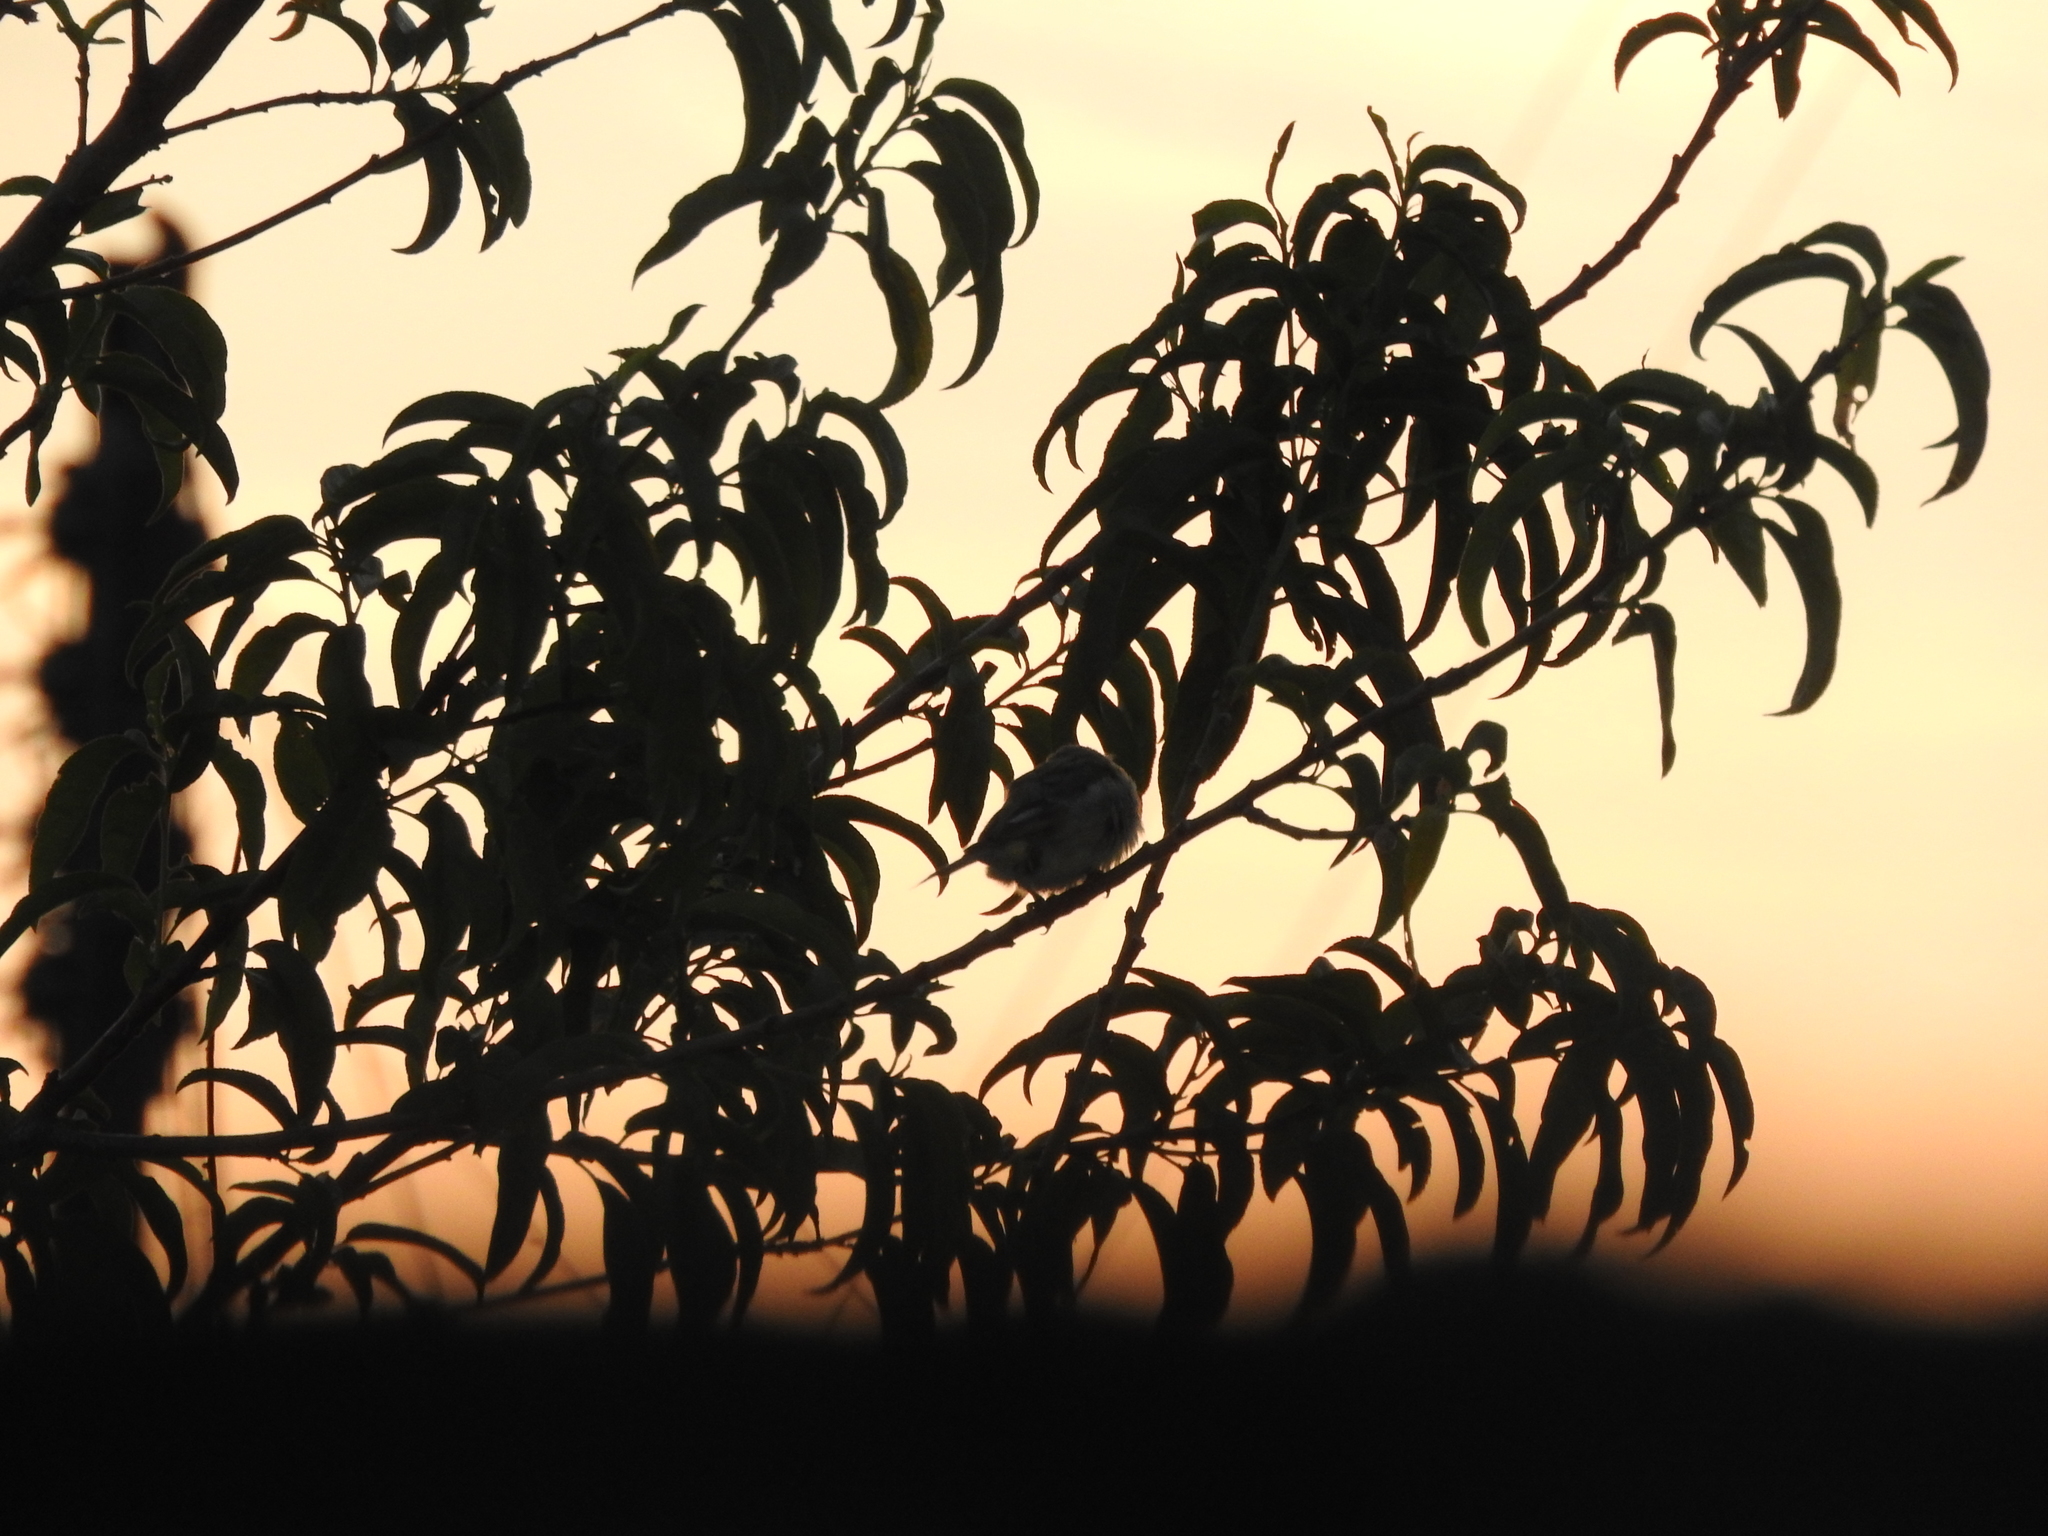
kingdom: Animalia
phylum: Chordata
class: Aves
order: Passeriformes
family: Fringillidae
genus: Haemorhous
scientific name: Haemorhous mexicanus
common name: House finch
